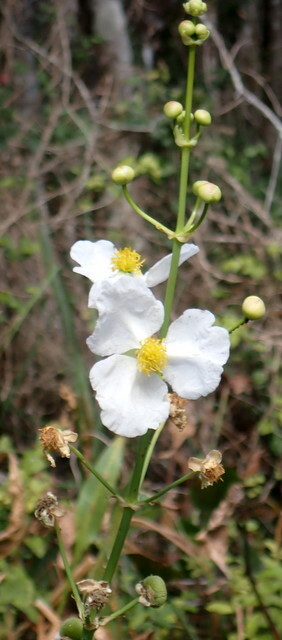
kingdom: Plantae
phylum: Tracheophyta
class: Liliopsida
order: Alismatales
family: Alismataceae
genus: Sagittaria
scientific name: Sagittaria lancifolia
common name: Lance-leaf arrowhead
